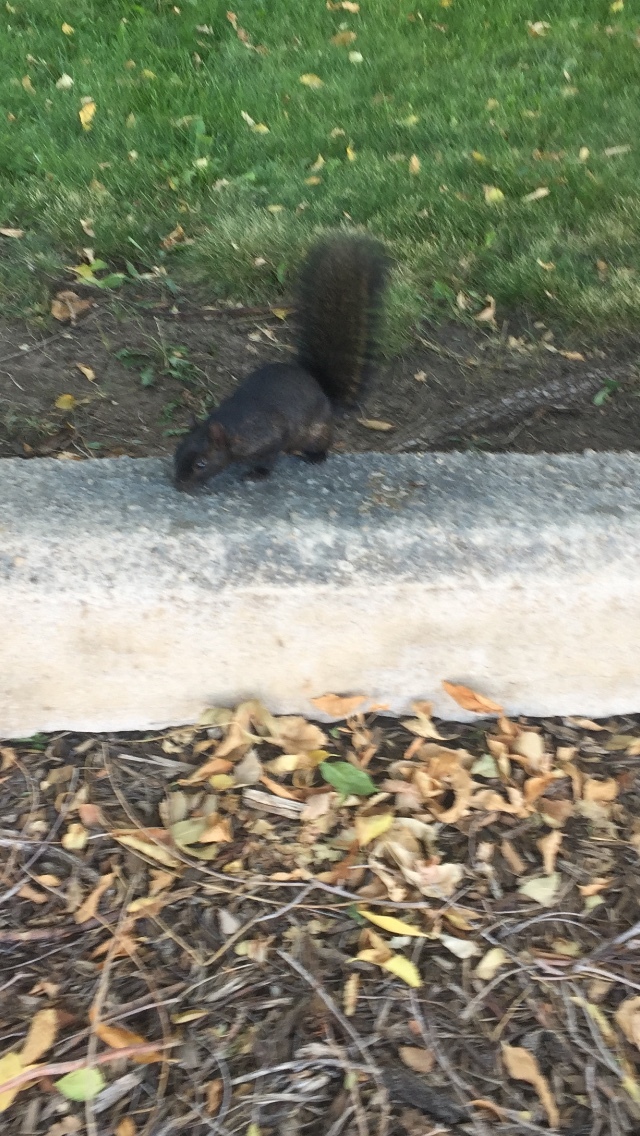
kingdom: Animalia
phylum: Chordata
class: Mammalia
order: Rodentia
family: Sciuridae
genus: Sciurus
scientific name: Sciurus niger
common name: Fox squirrel
